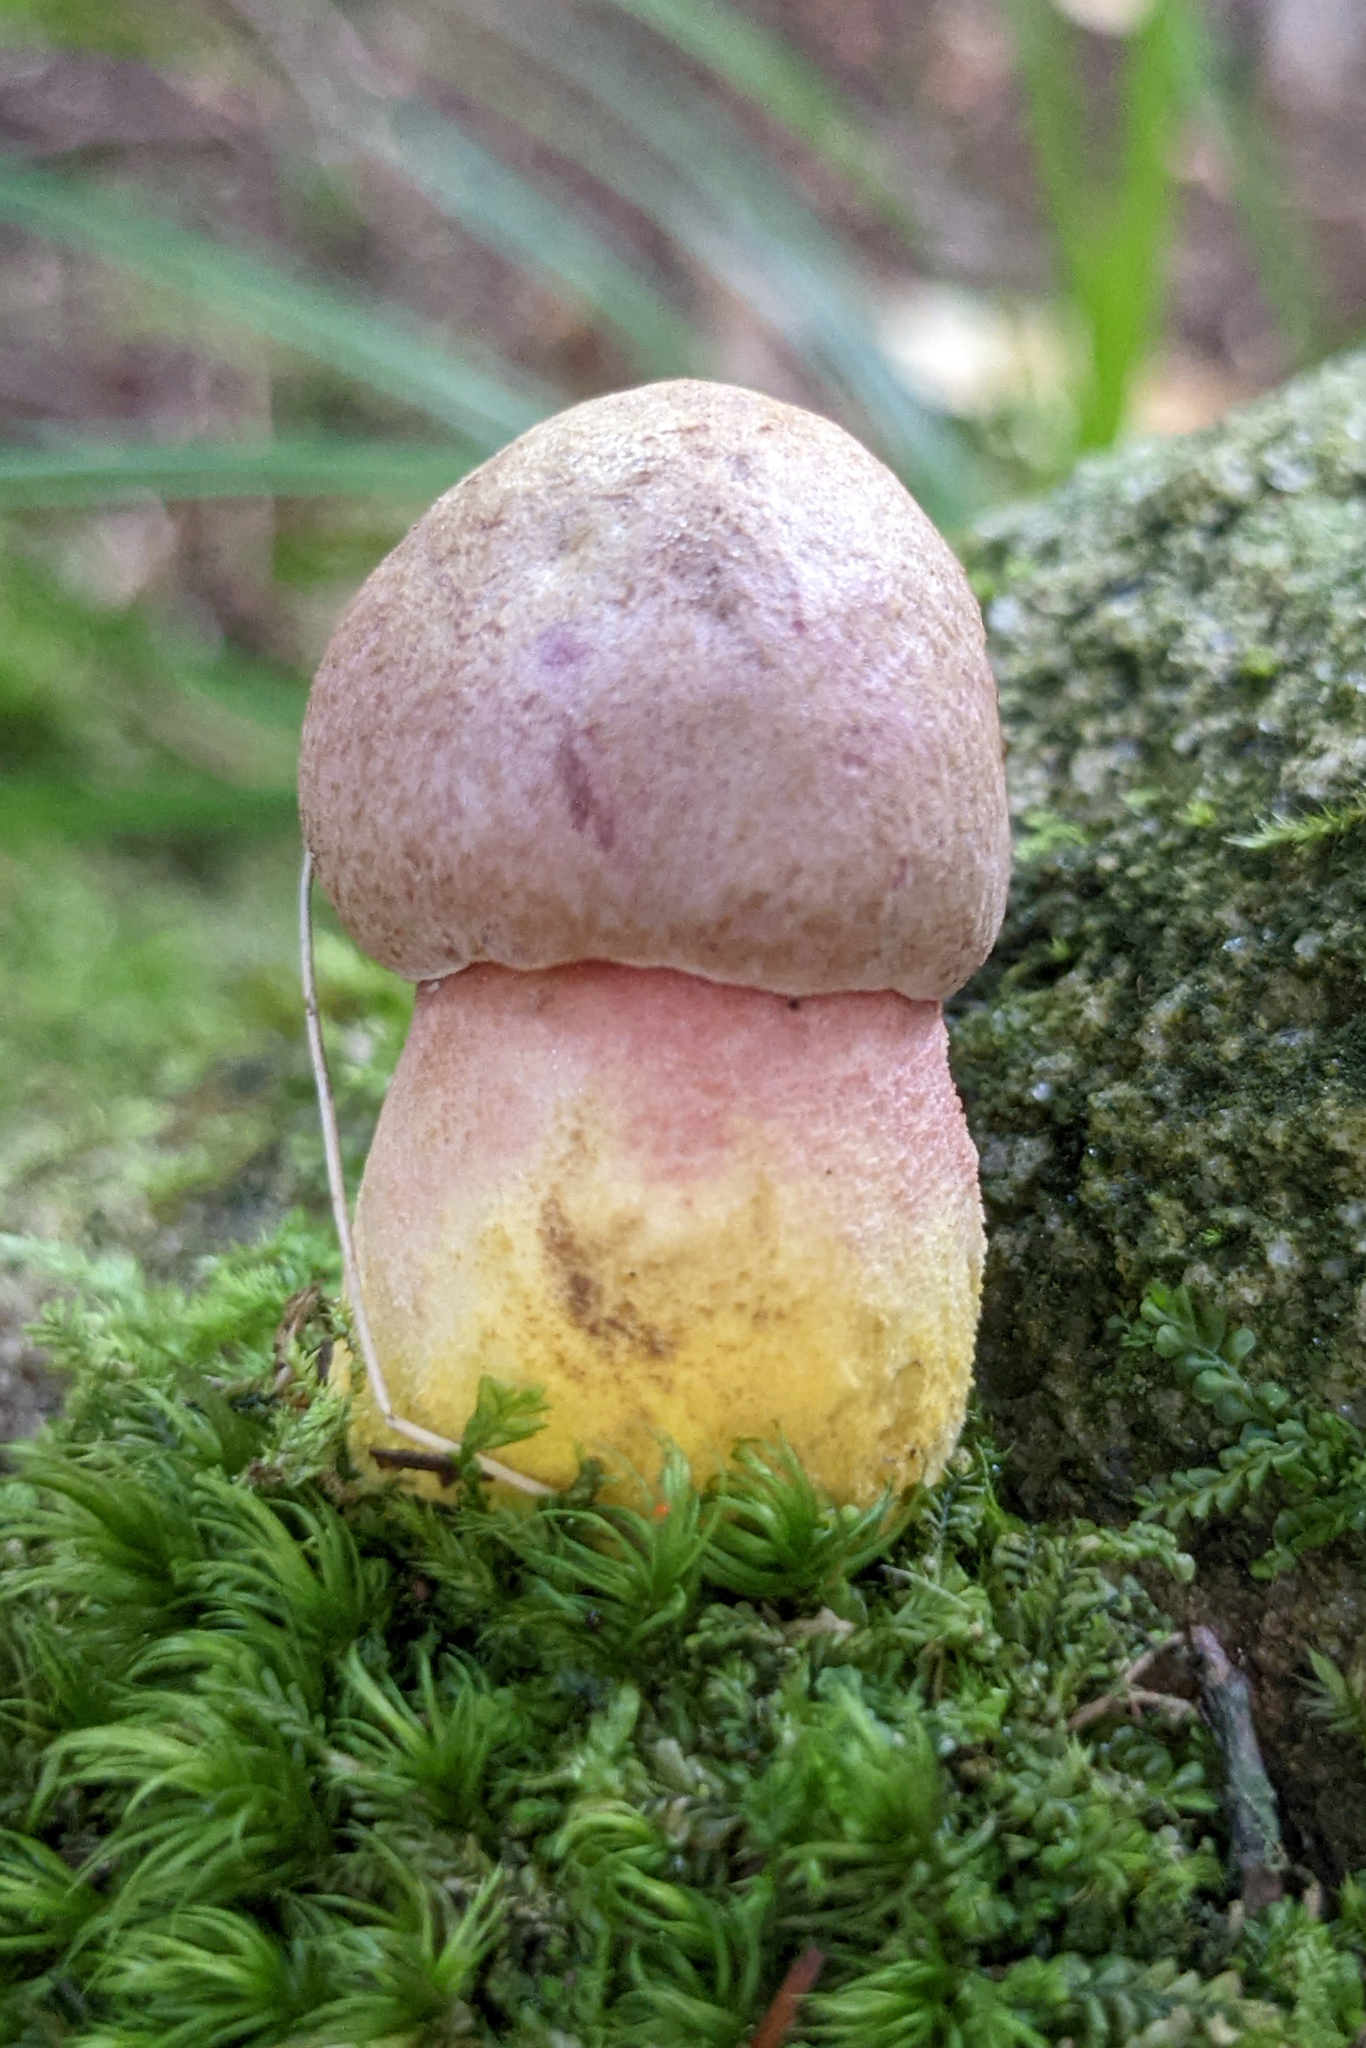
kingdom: Fungi
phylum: Basidiomycota
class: Agaricomycetes
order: Boletales
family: Boletaceae
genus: Harrya
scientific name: Harrya chromipes
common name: Chrome-footed bolete
